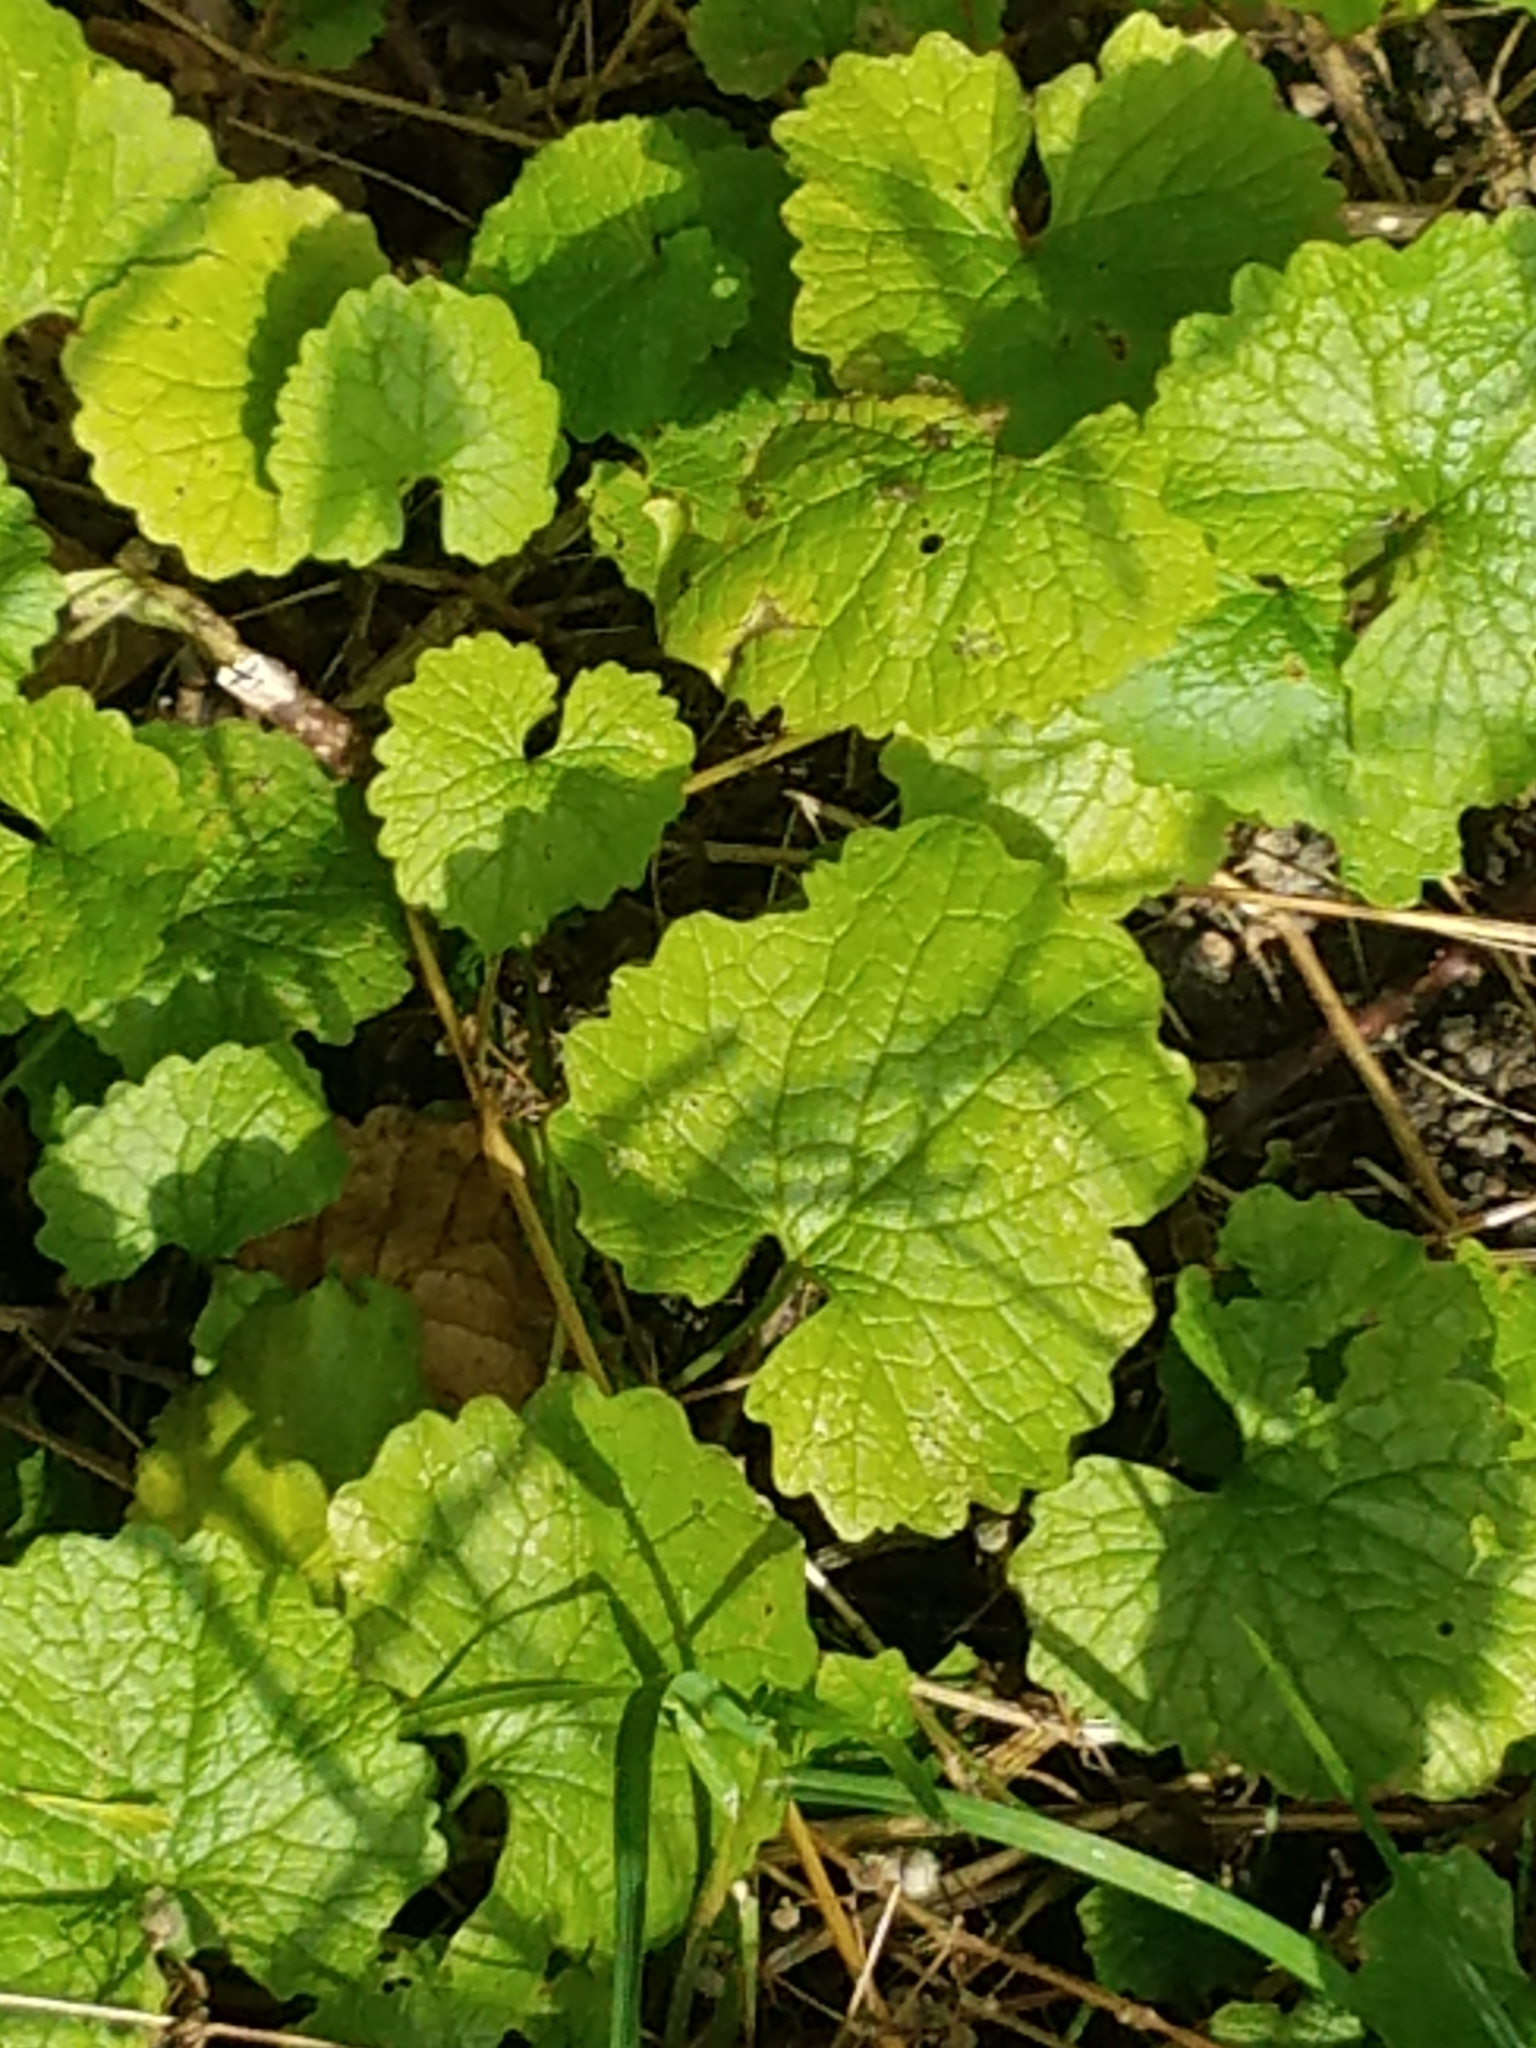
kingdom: Plantae
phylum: Tracheophyta
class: Magnoliopsida
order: Brassicales
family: Brassicaceae
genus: Alliaria
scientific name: Alliaria petiolata
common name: Garlic mustard
